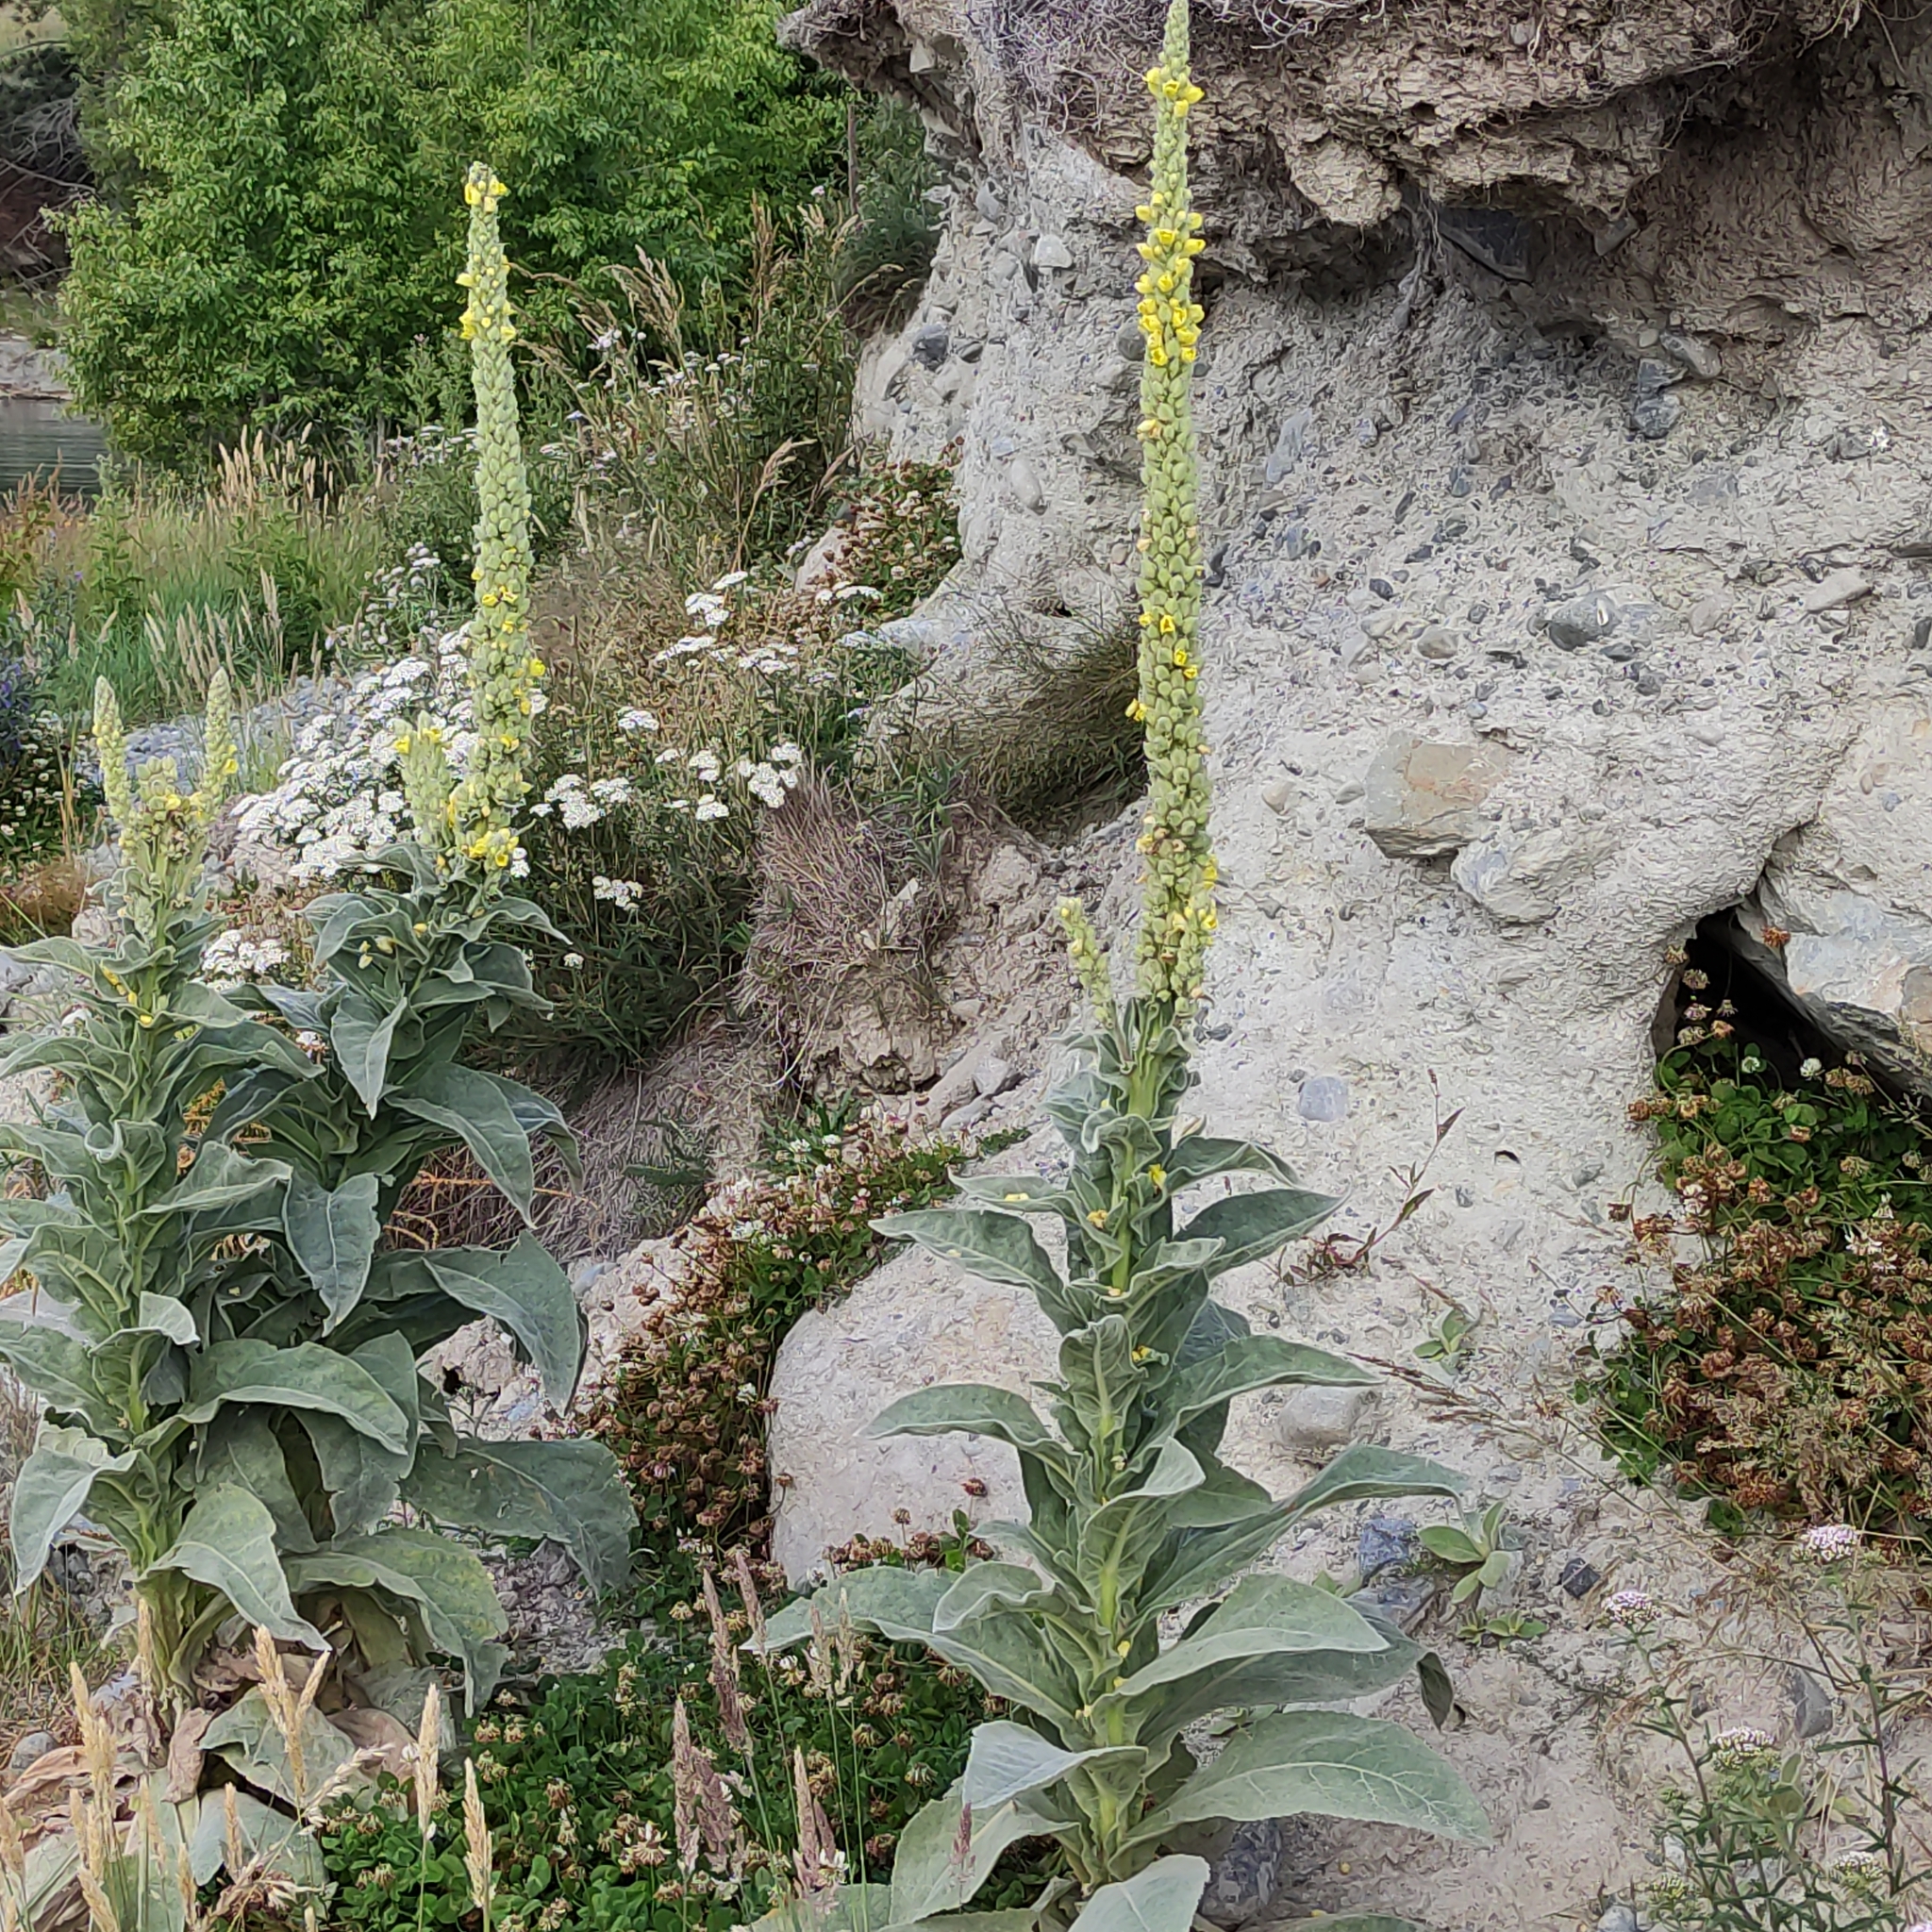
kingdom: Plantae
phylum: Tracheophyta
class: Magnoliopsida
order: Lamiales
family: Scrophulariaceae
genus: Verbascum
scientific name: Verbascum thapsus
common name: Common mullein
